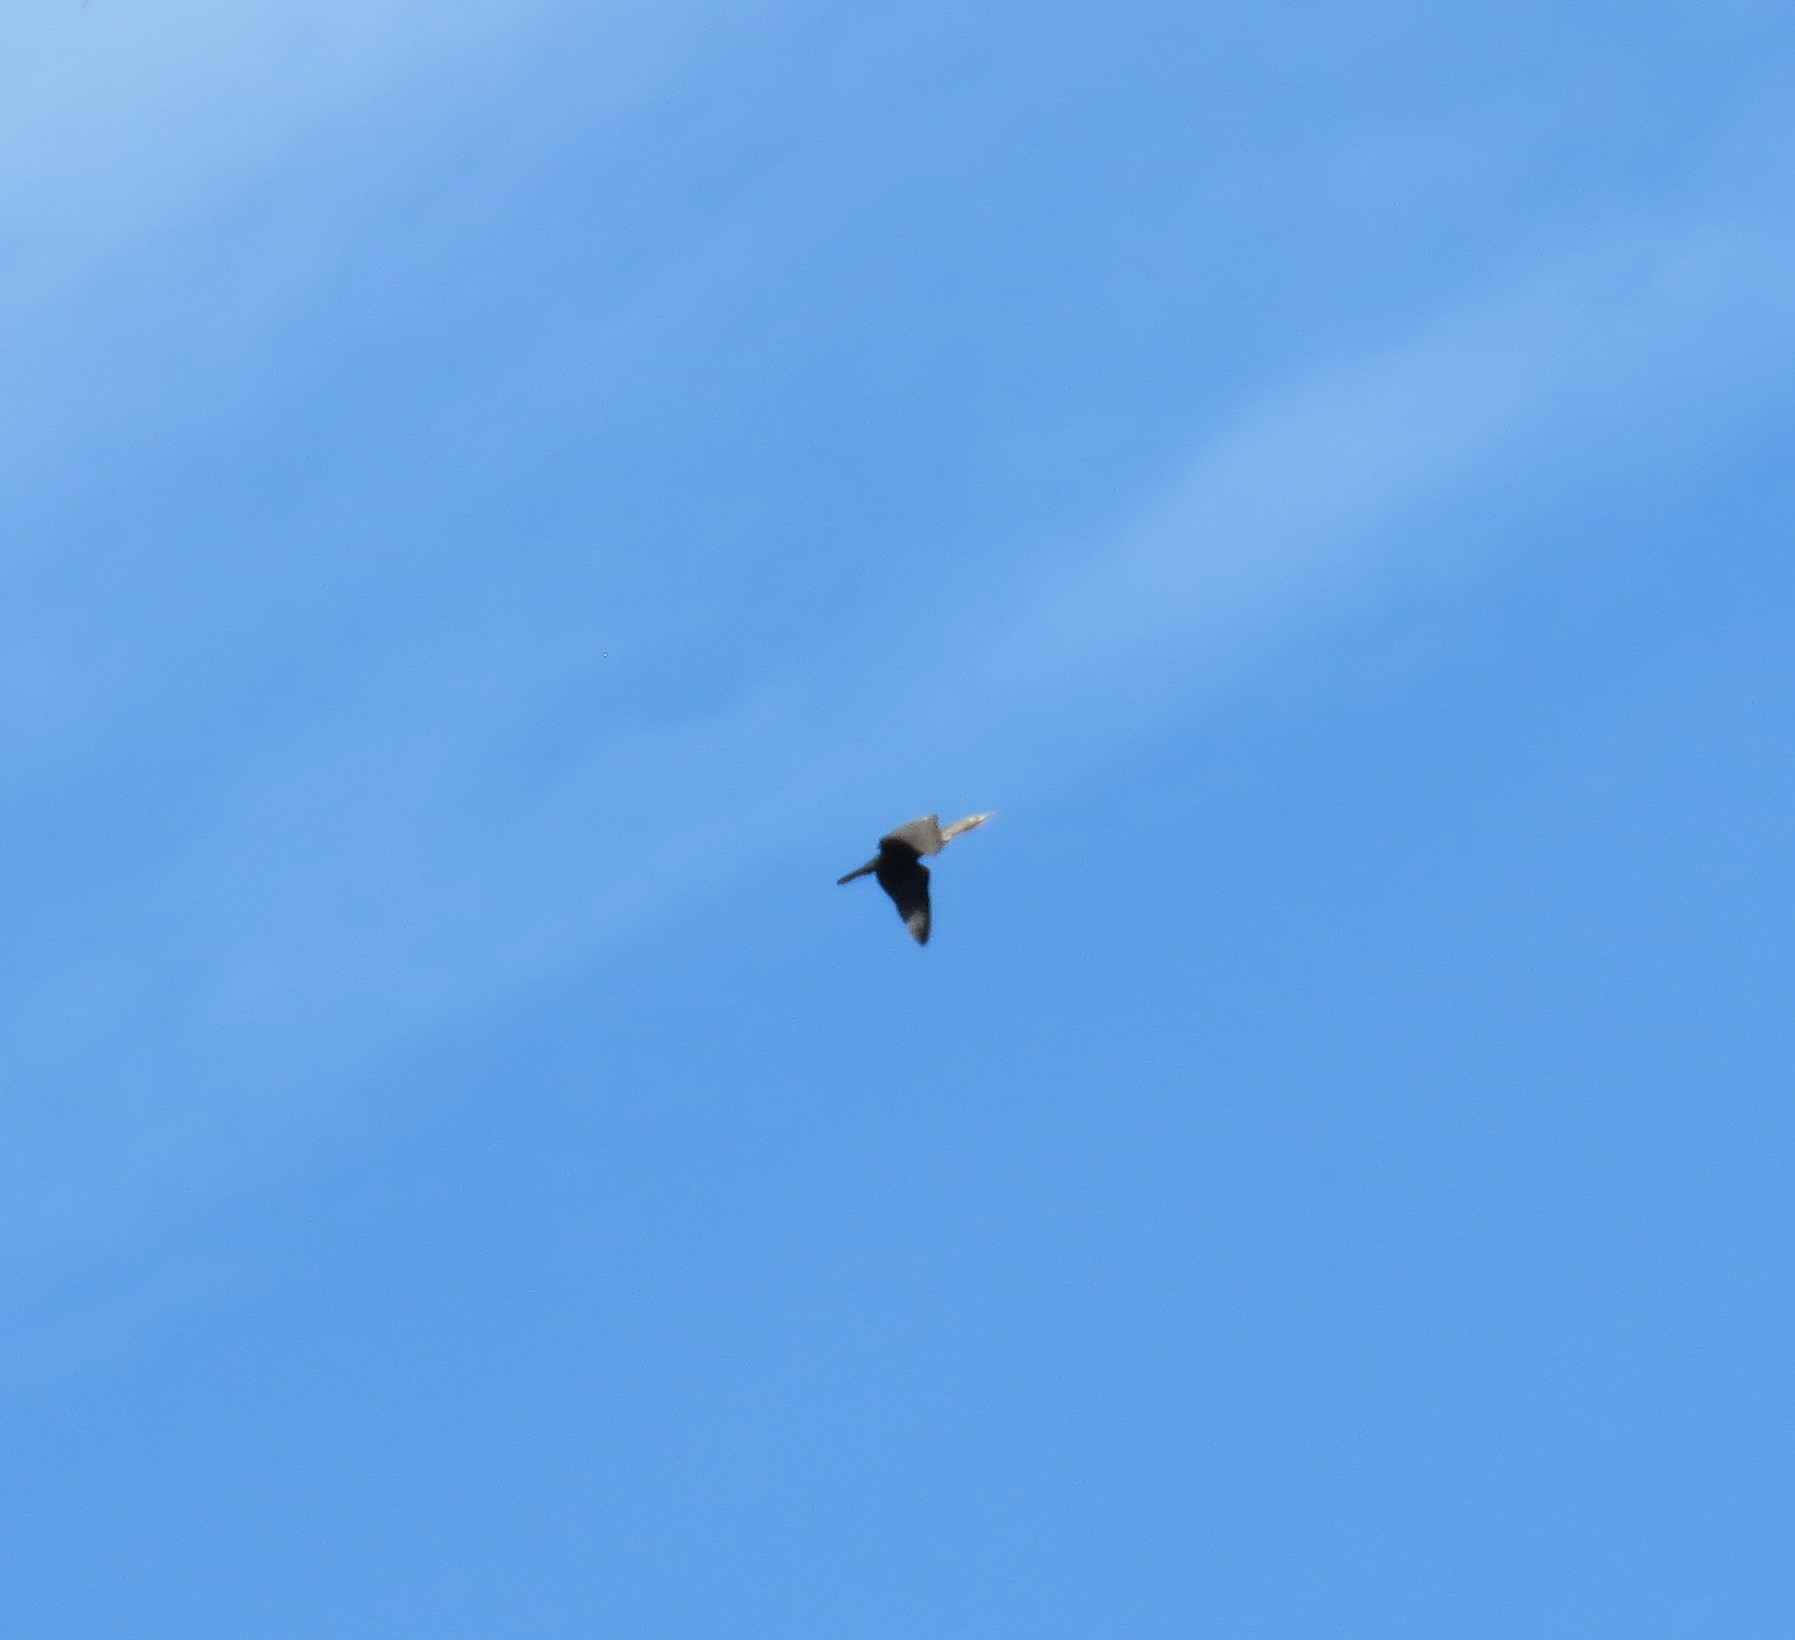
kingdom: Animalia
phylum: Chordata
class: Aves
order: Suliformes
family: Phalacrocoracidae
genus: Phalacrocorax
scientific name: Phalacrocorax auritus
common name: Double-crested cormorant
